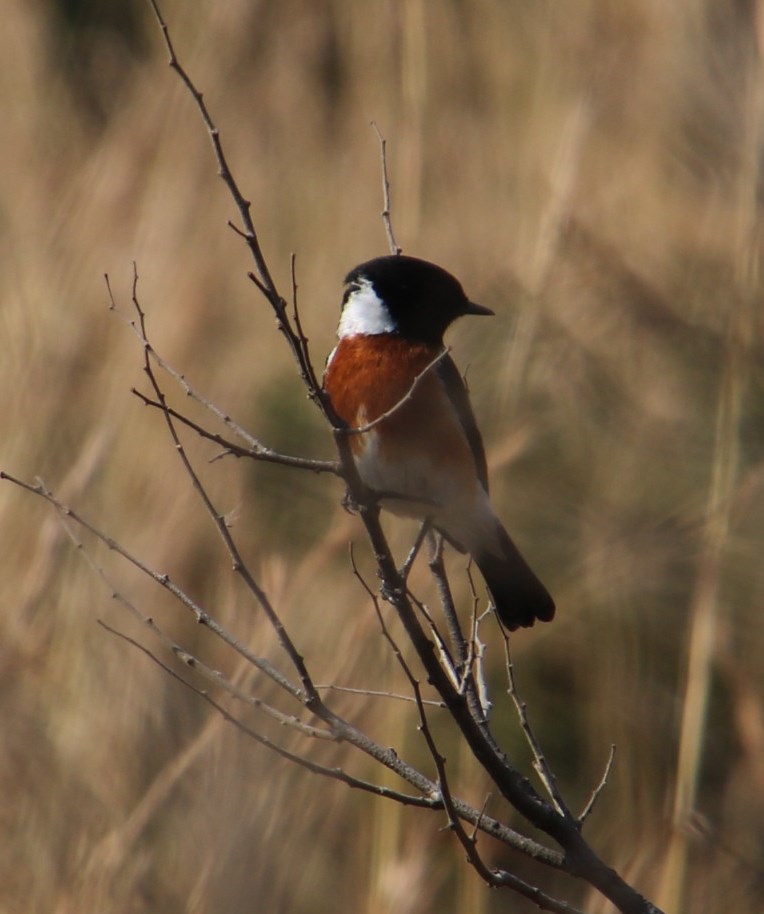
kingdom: Animalia
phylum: Chordata
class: Aves
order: Passeriformes
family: Muscicapidae
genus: Saxicola
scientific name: Saxicola torquatus
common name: African stonechat
